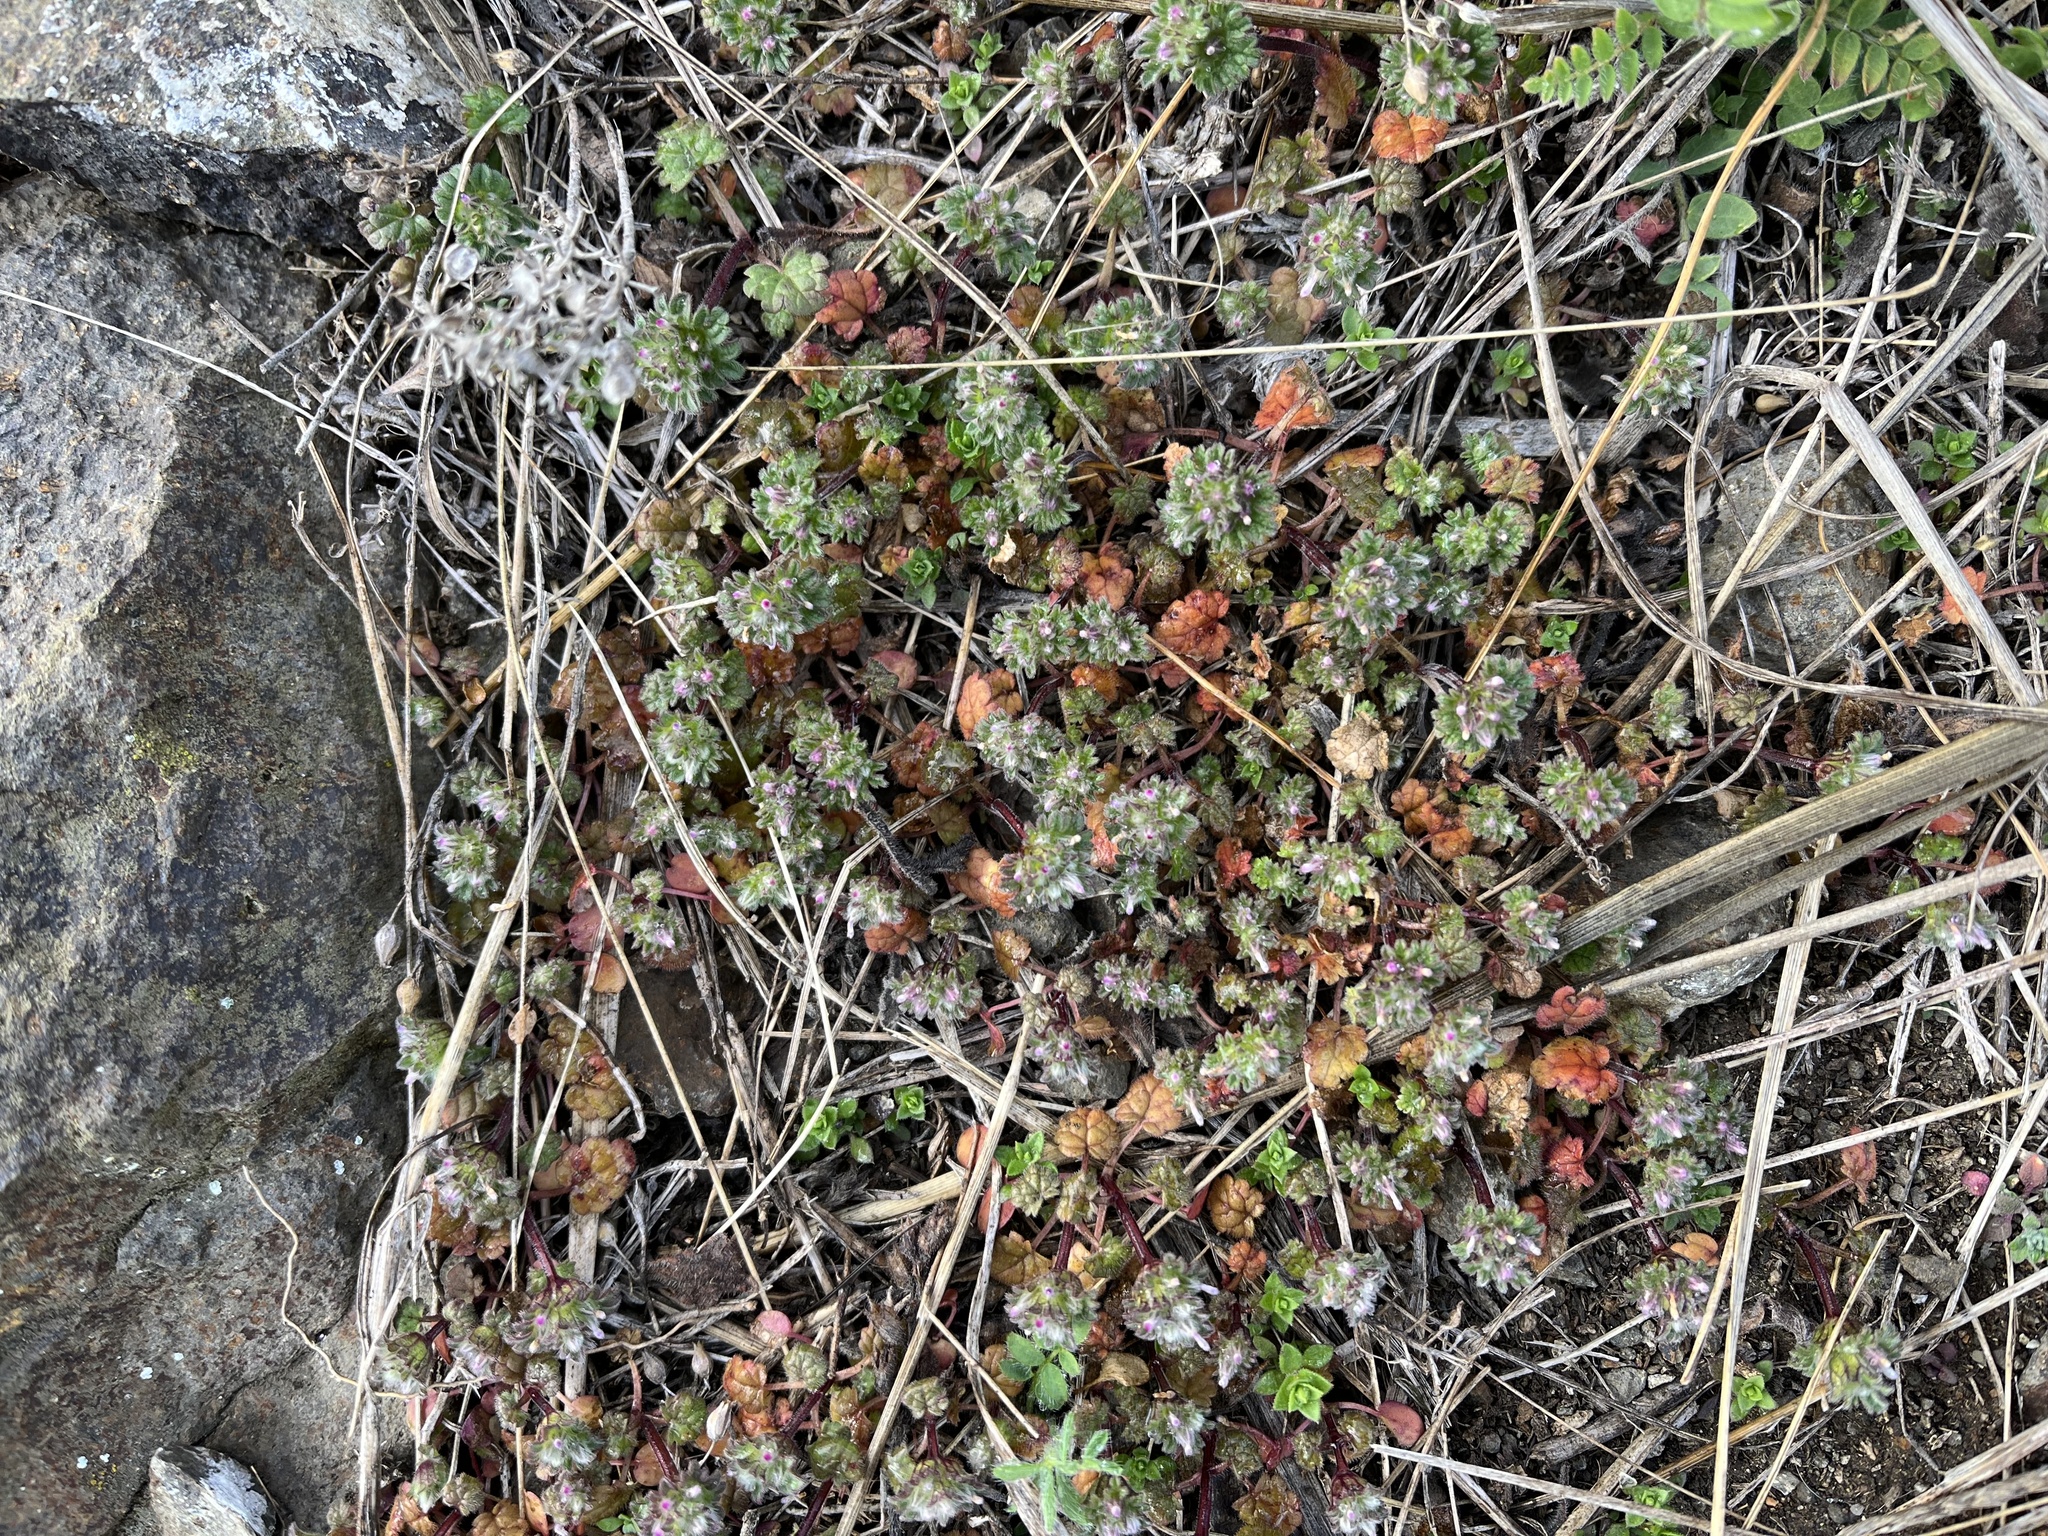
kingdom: Plantae
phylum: Tracheophyta
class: Magnoliopsida
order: Lamiales
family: Lamiaceae
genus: Lamium
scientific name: Lamium amplexicaule
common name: Henbit dead-nettle
